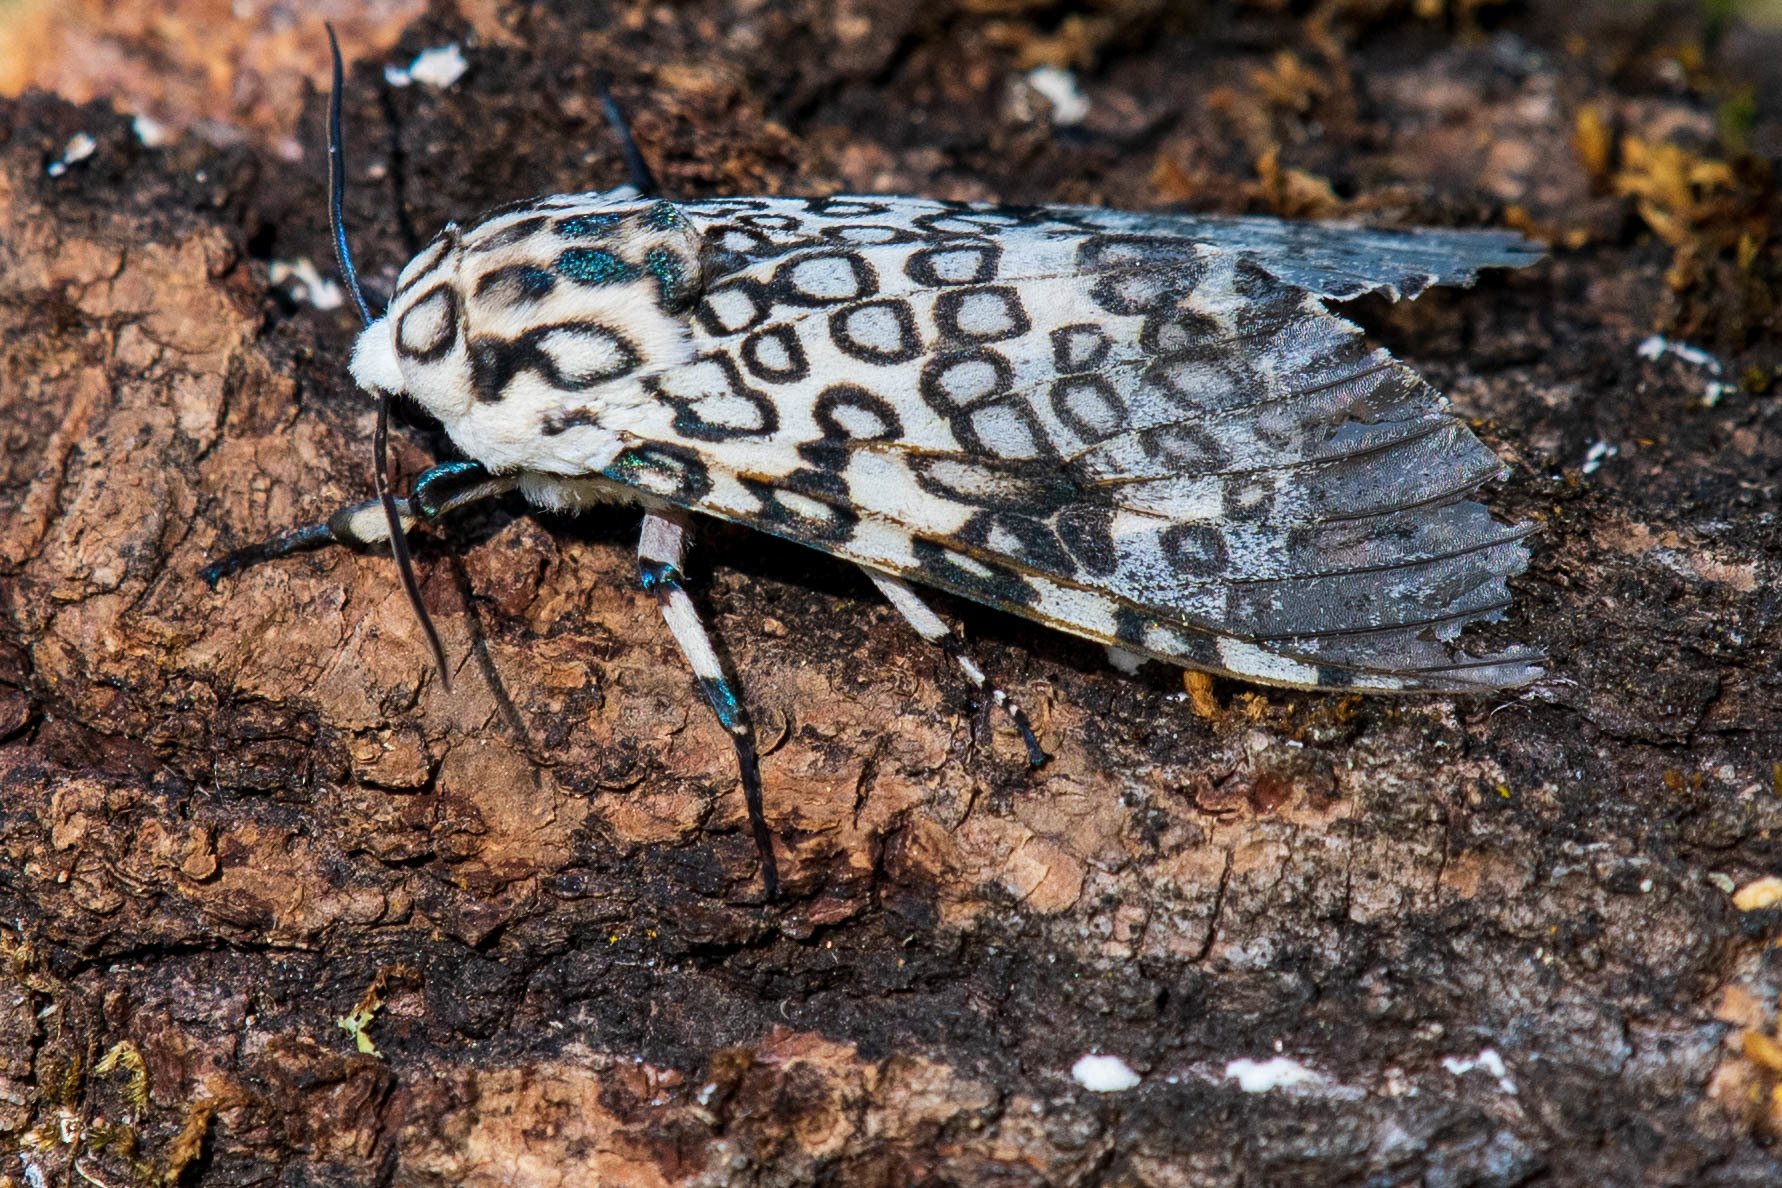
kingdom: Animalia
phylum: Arthropoda
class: Insecta
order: Lepidoptera
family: Erebidae
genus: Hypercompe
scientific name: Hypercompe scribonia
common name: Giant leopard moth
